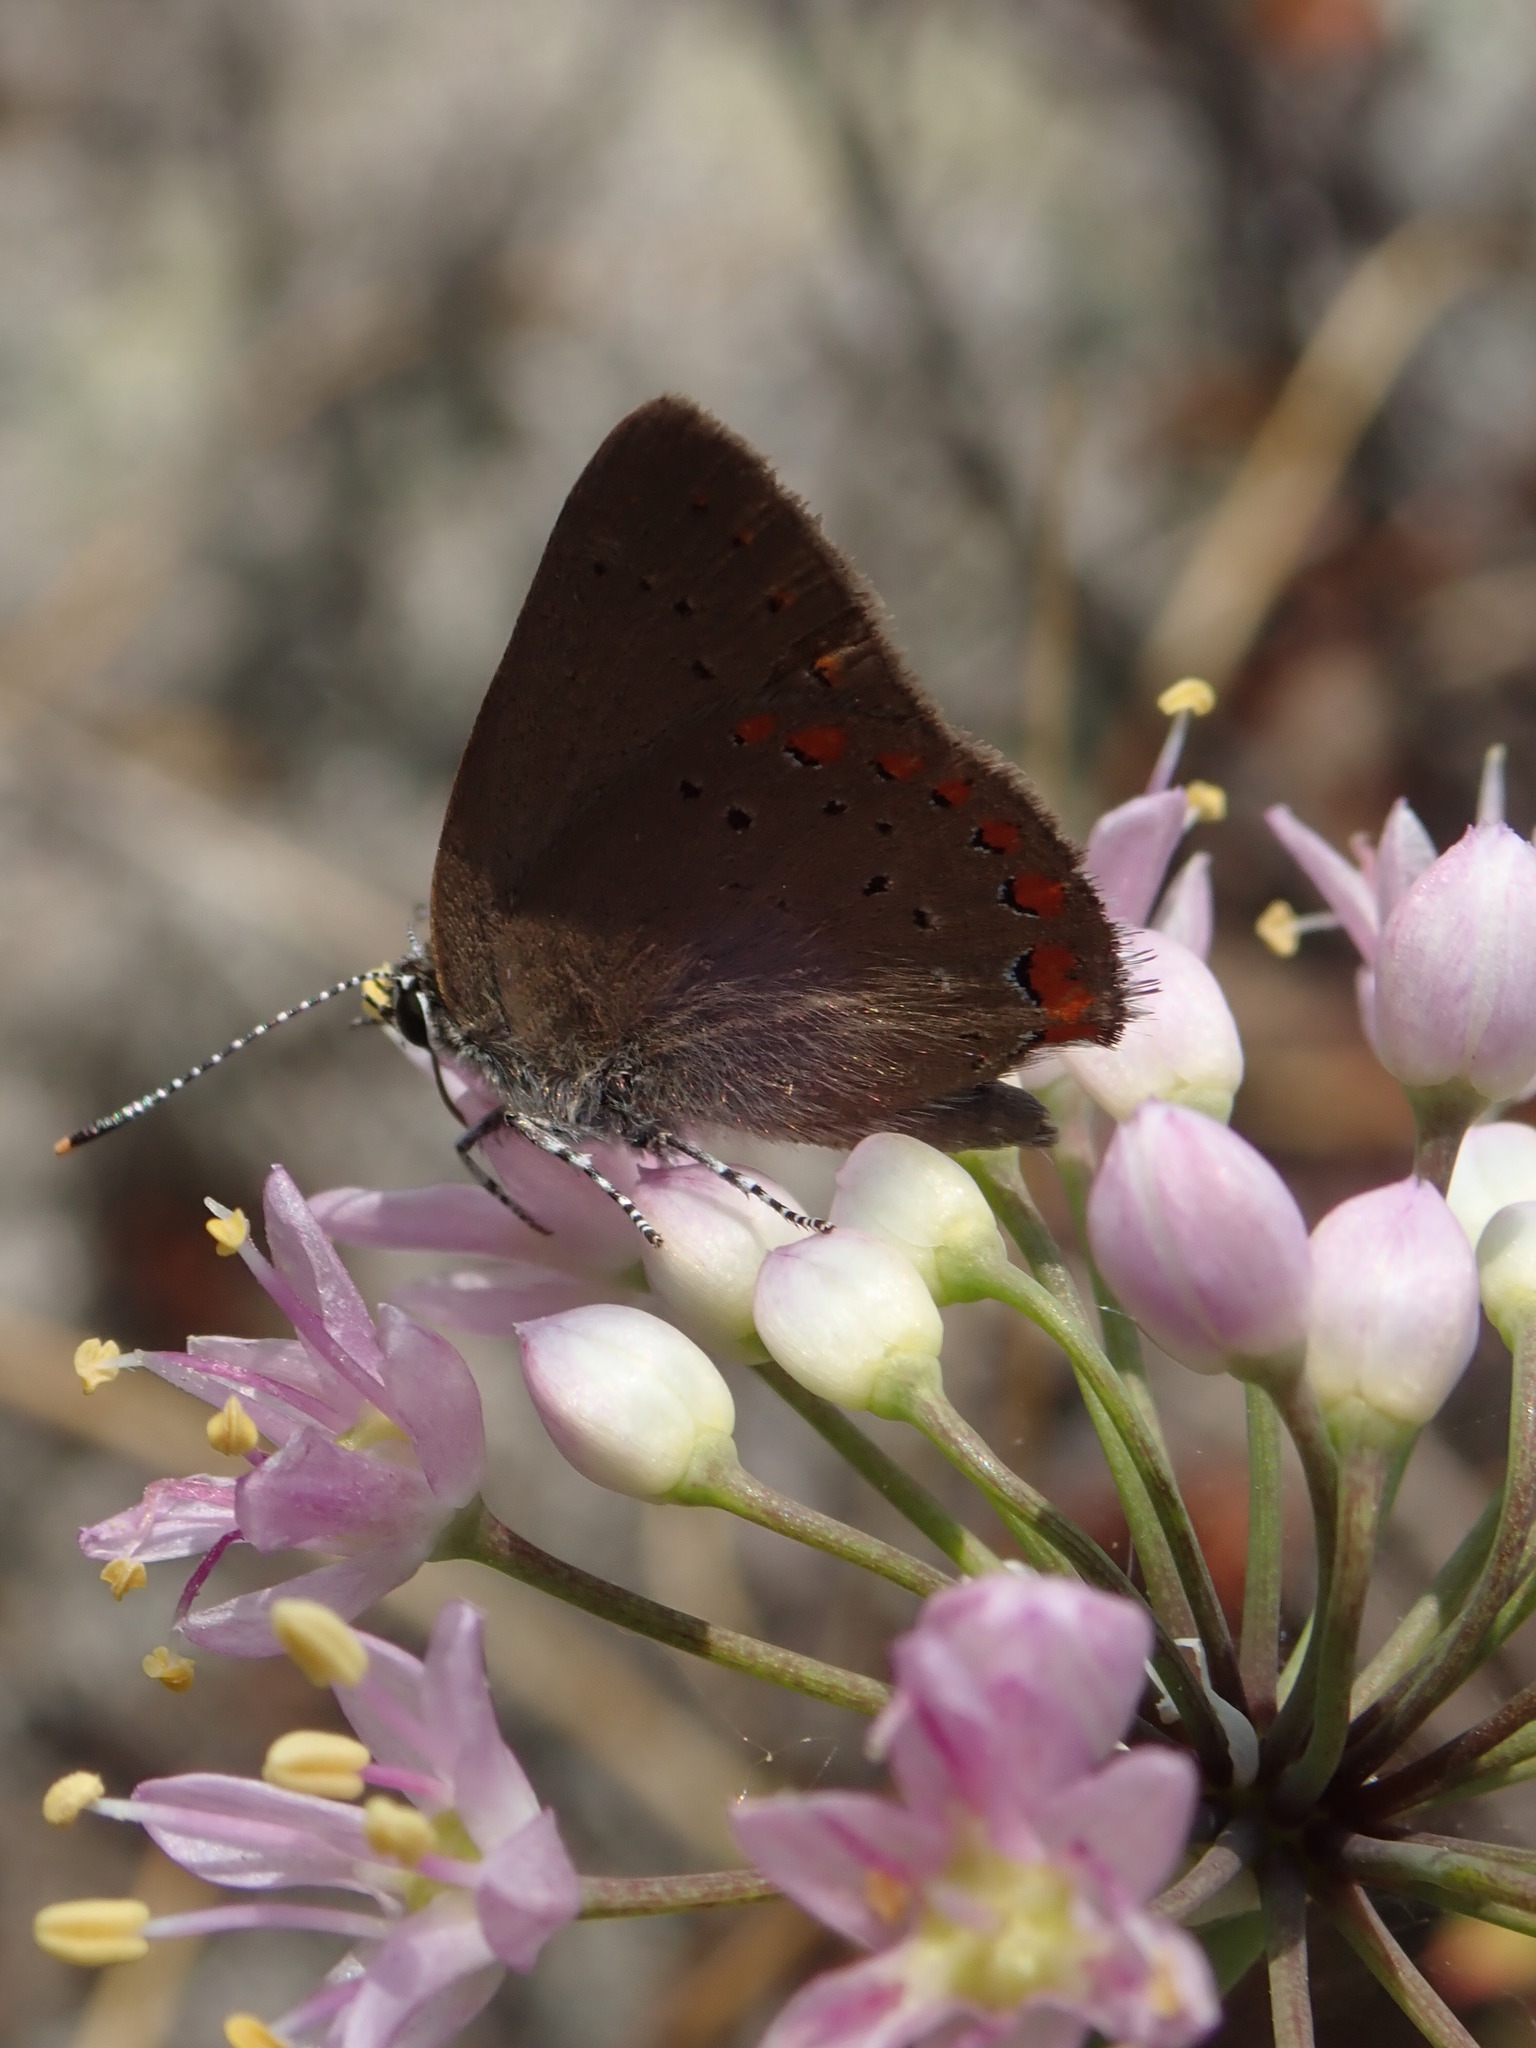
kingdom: Animalia
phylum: Arthropoda
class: Insecta
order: Lepidoptera
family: Lycaenidae
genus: Harkenclenus
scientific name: Harkenclenus titus
